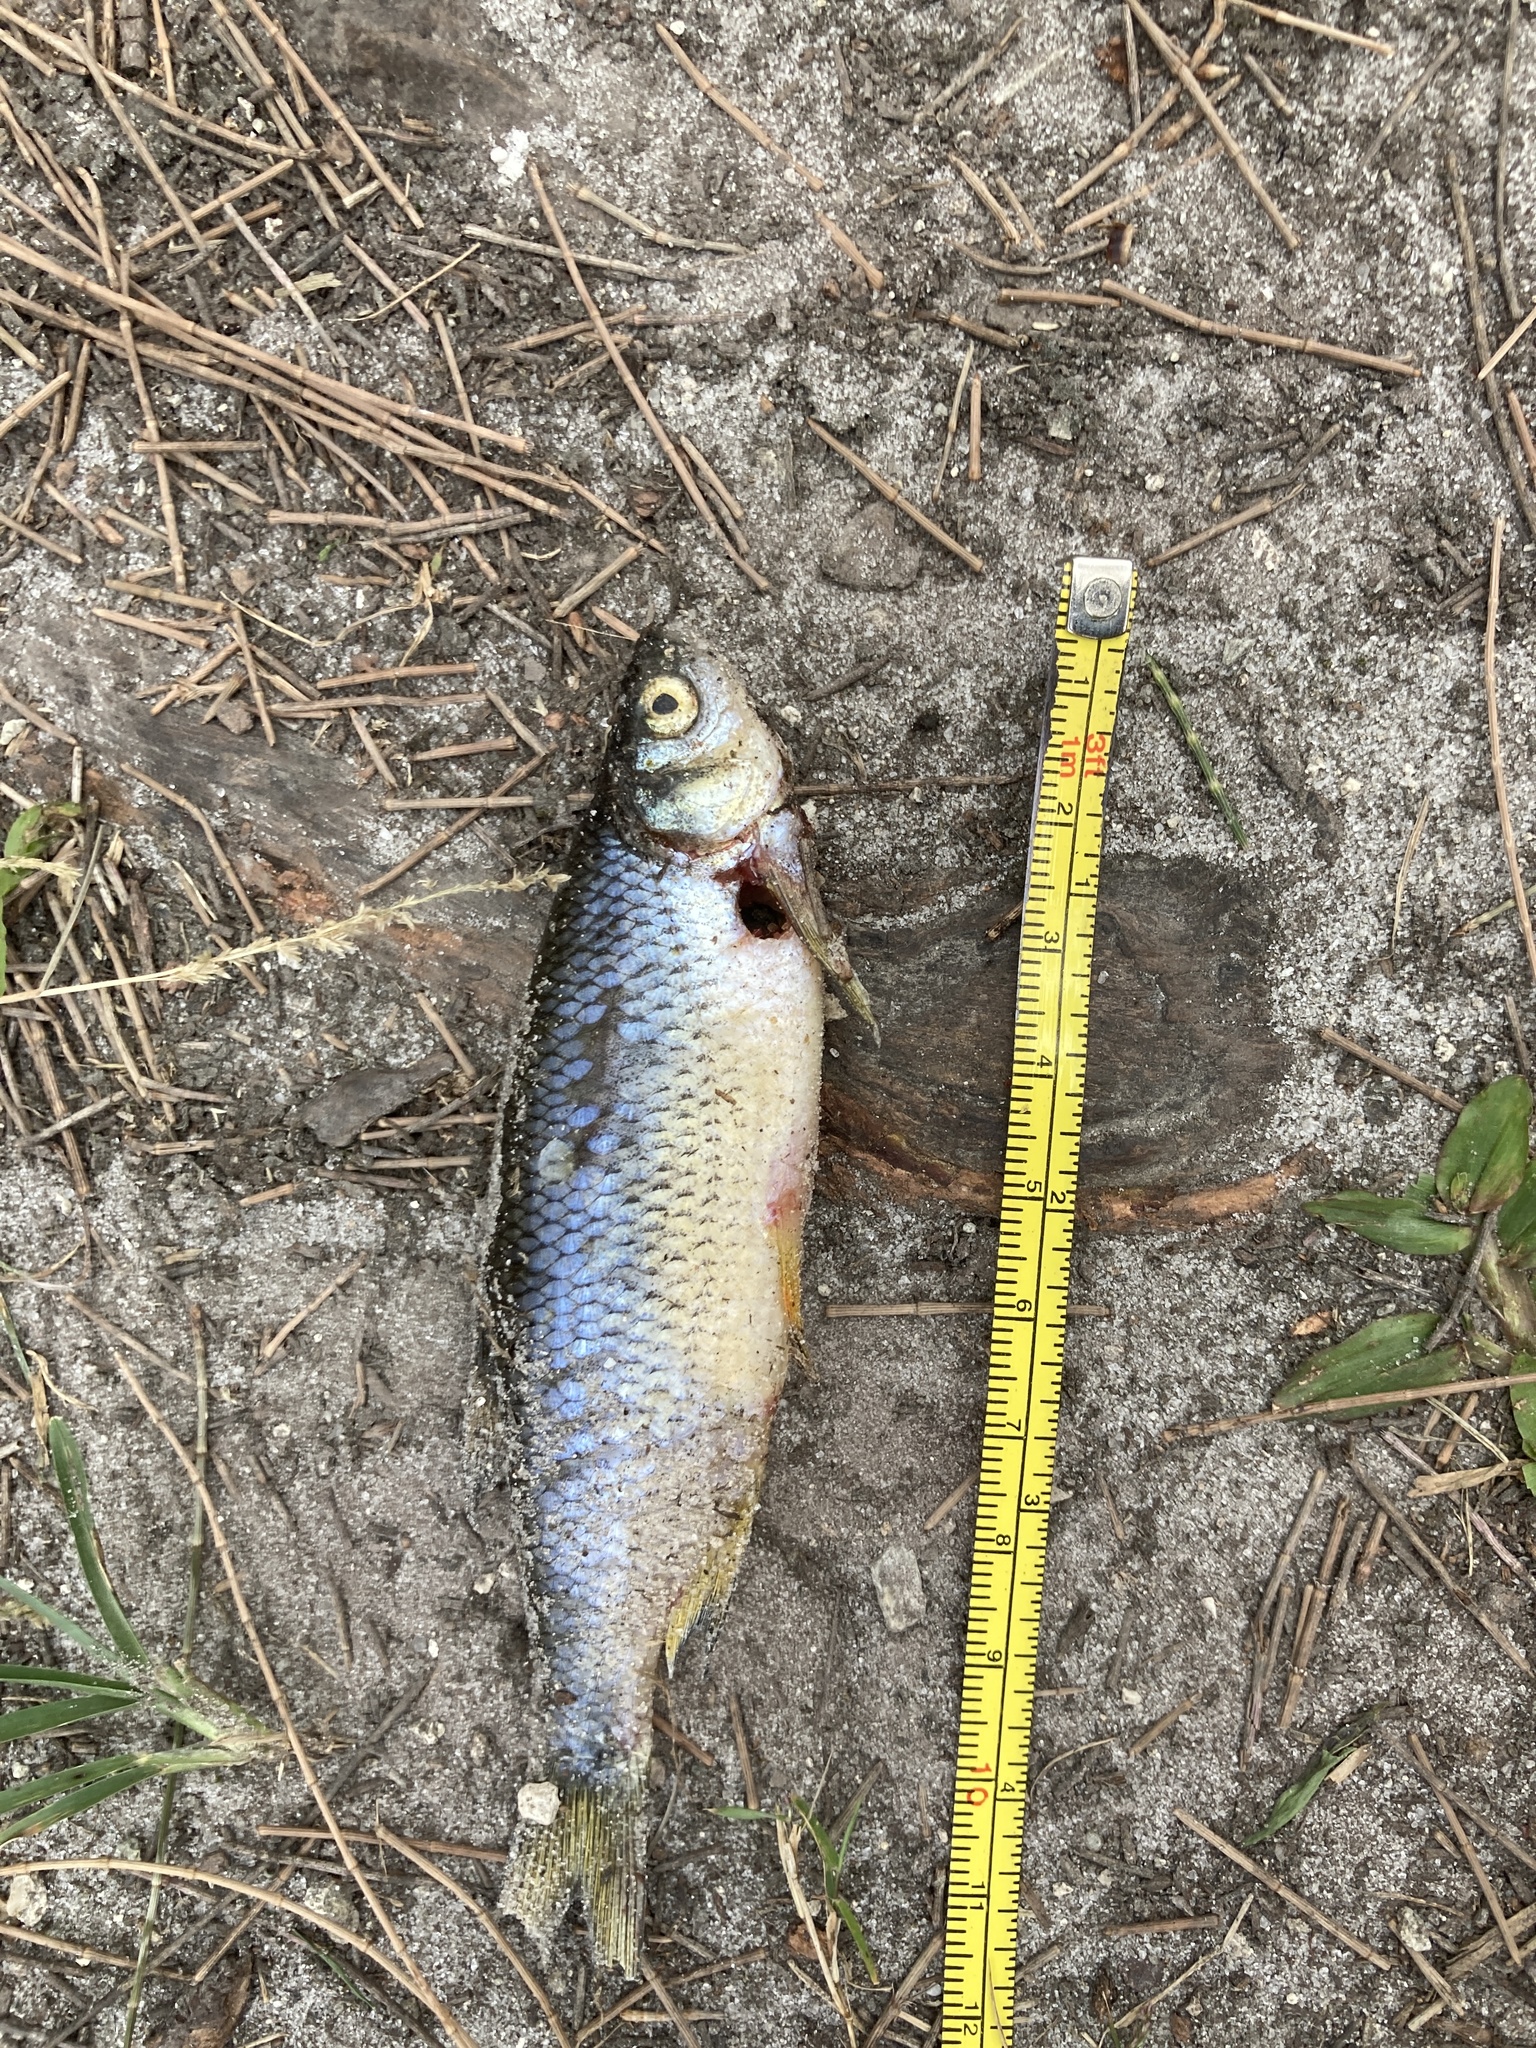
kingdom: Animalia
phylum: Chordata
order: Cypriniformes
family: Cyprinidae
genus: Notemigonus
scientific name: Notemigonus crysoleucas
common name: Golden shiner
